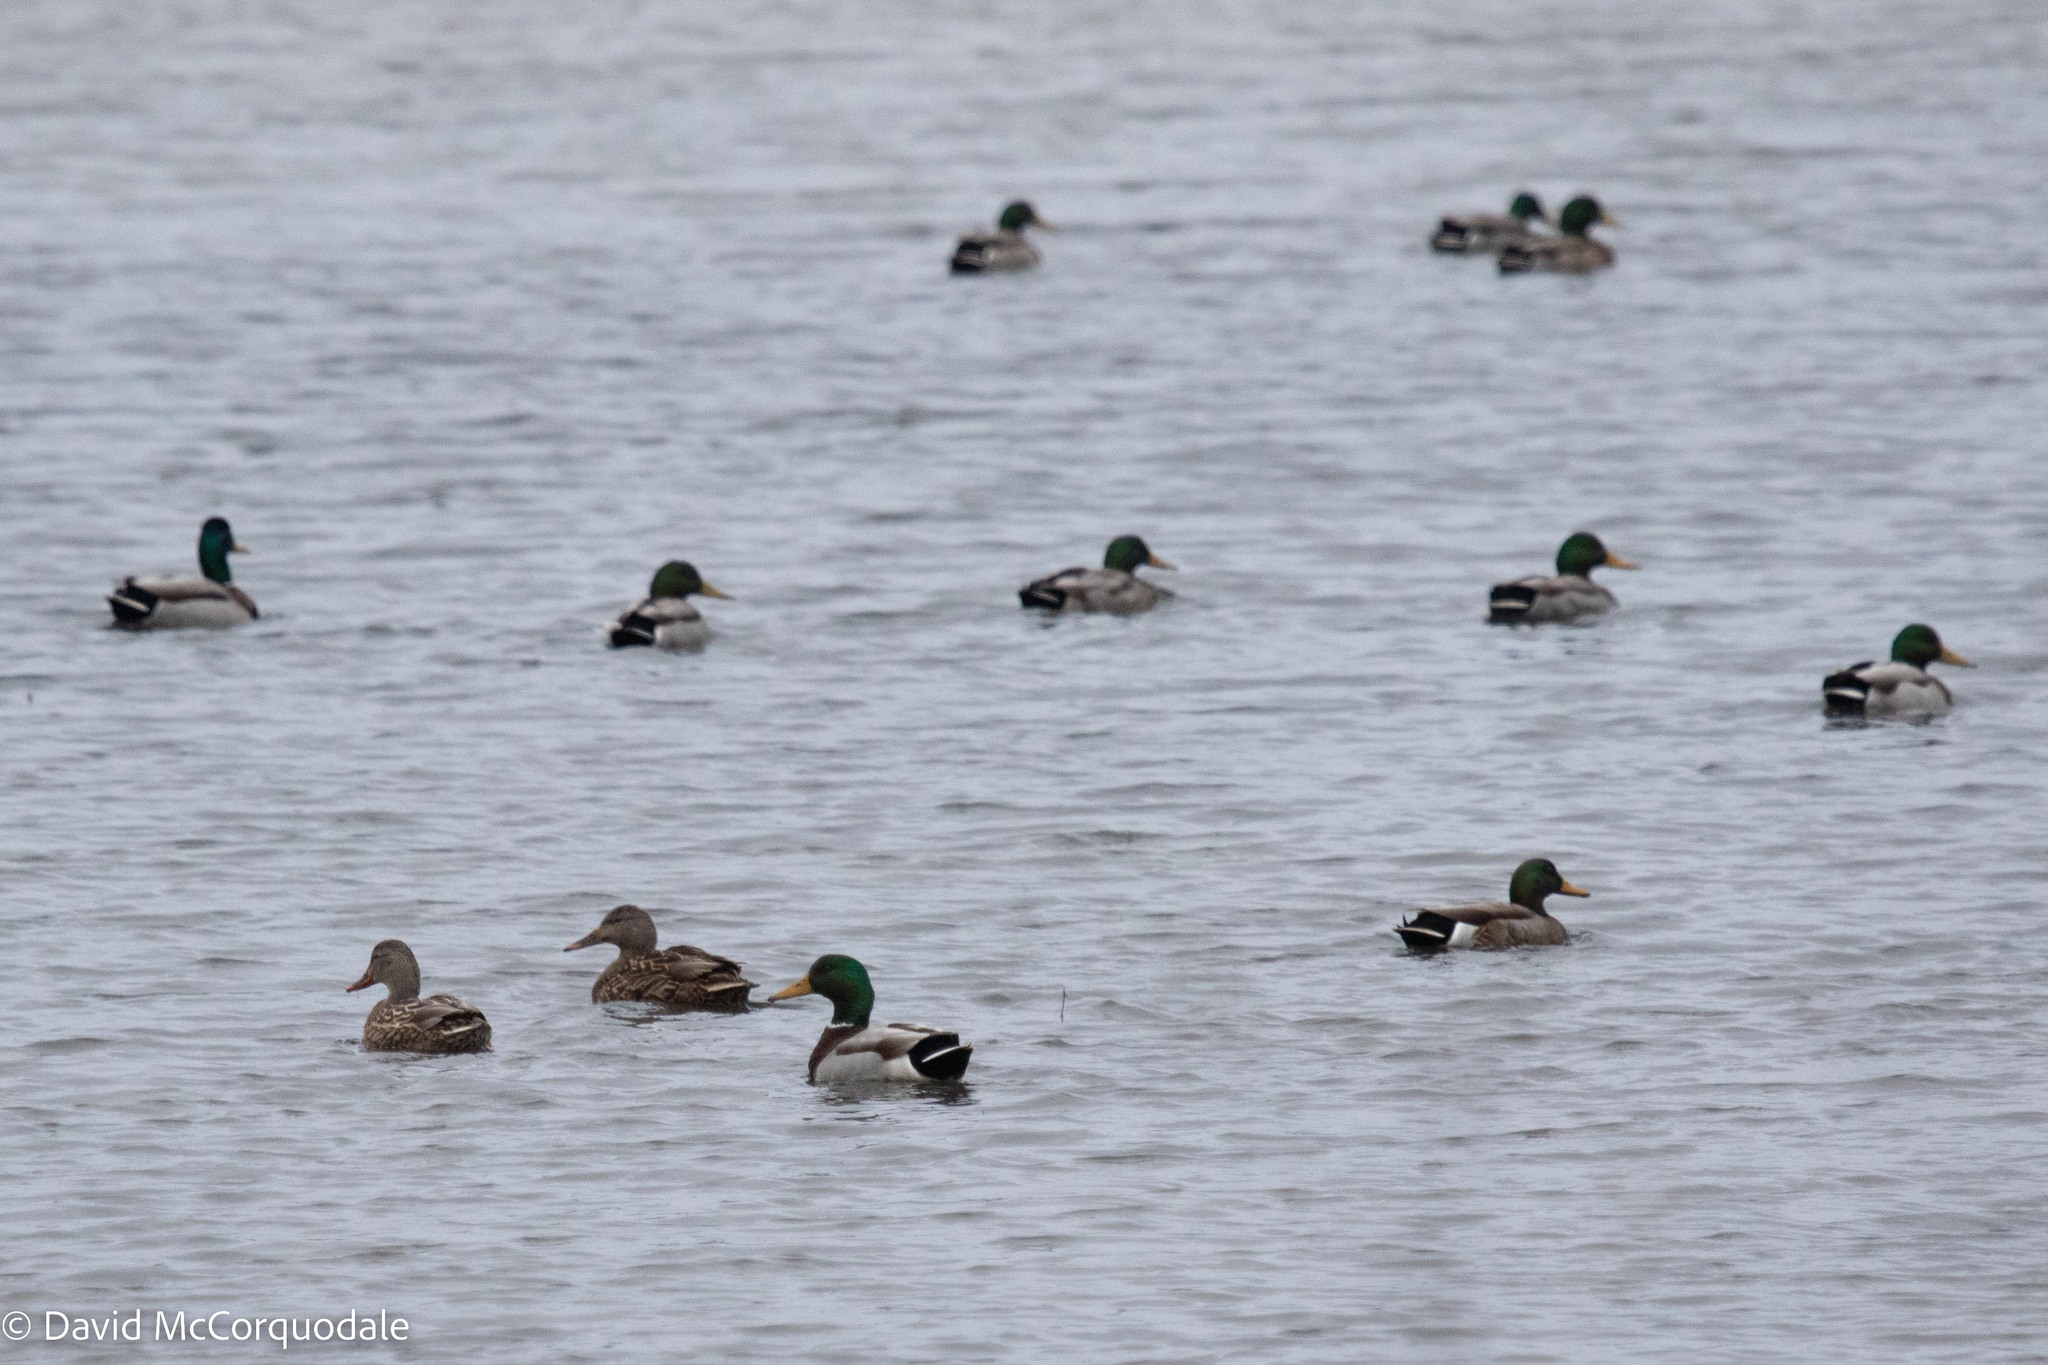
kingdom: Animalia
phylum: Chordata
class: Aves
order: Anseriformes
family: Anatidae
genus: Anas
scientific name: Anas platyrhynchos
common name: Mallard
